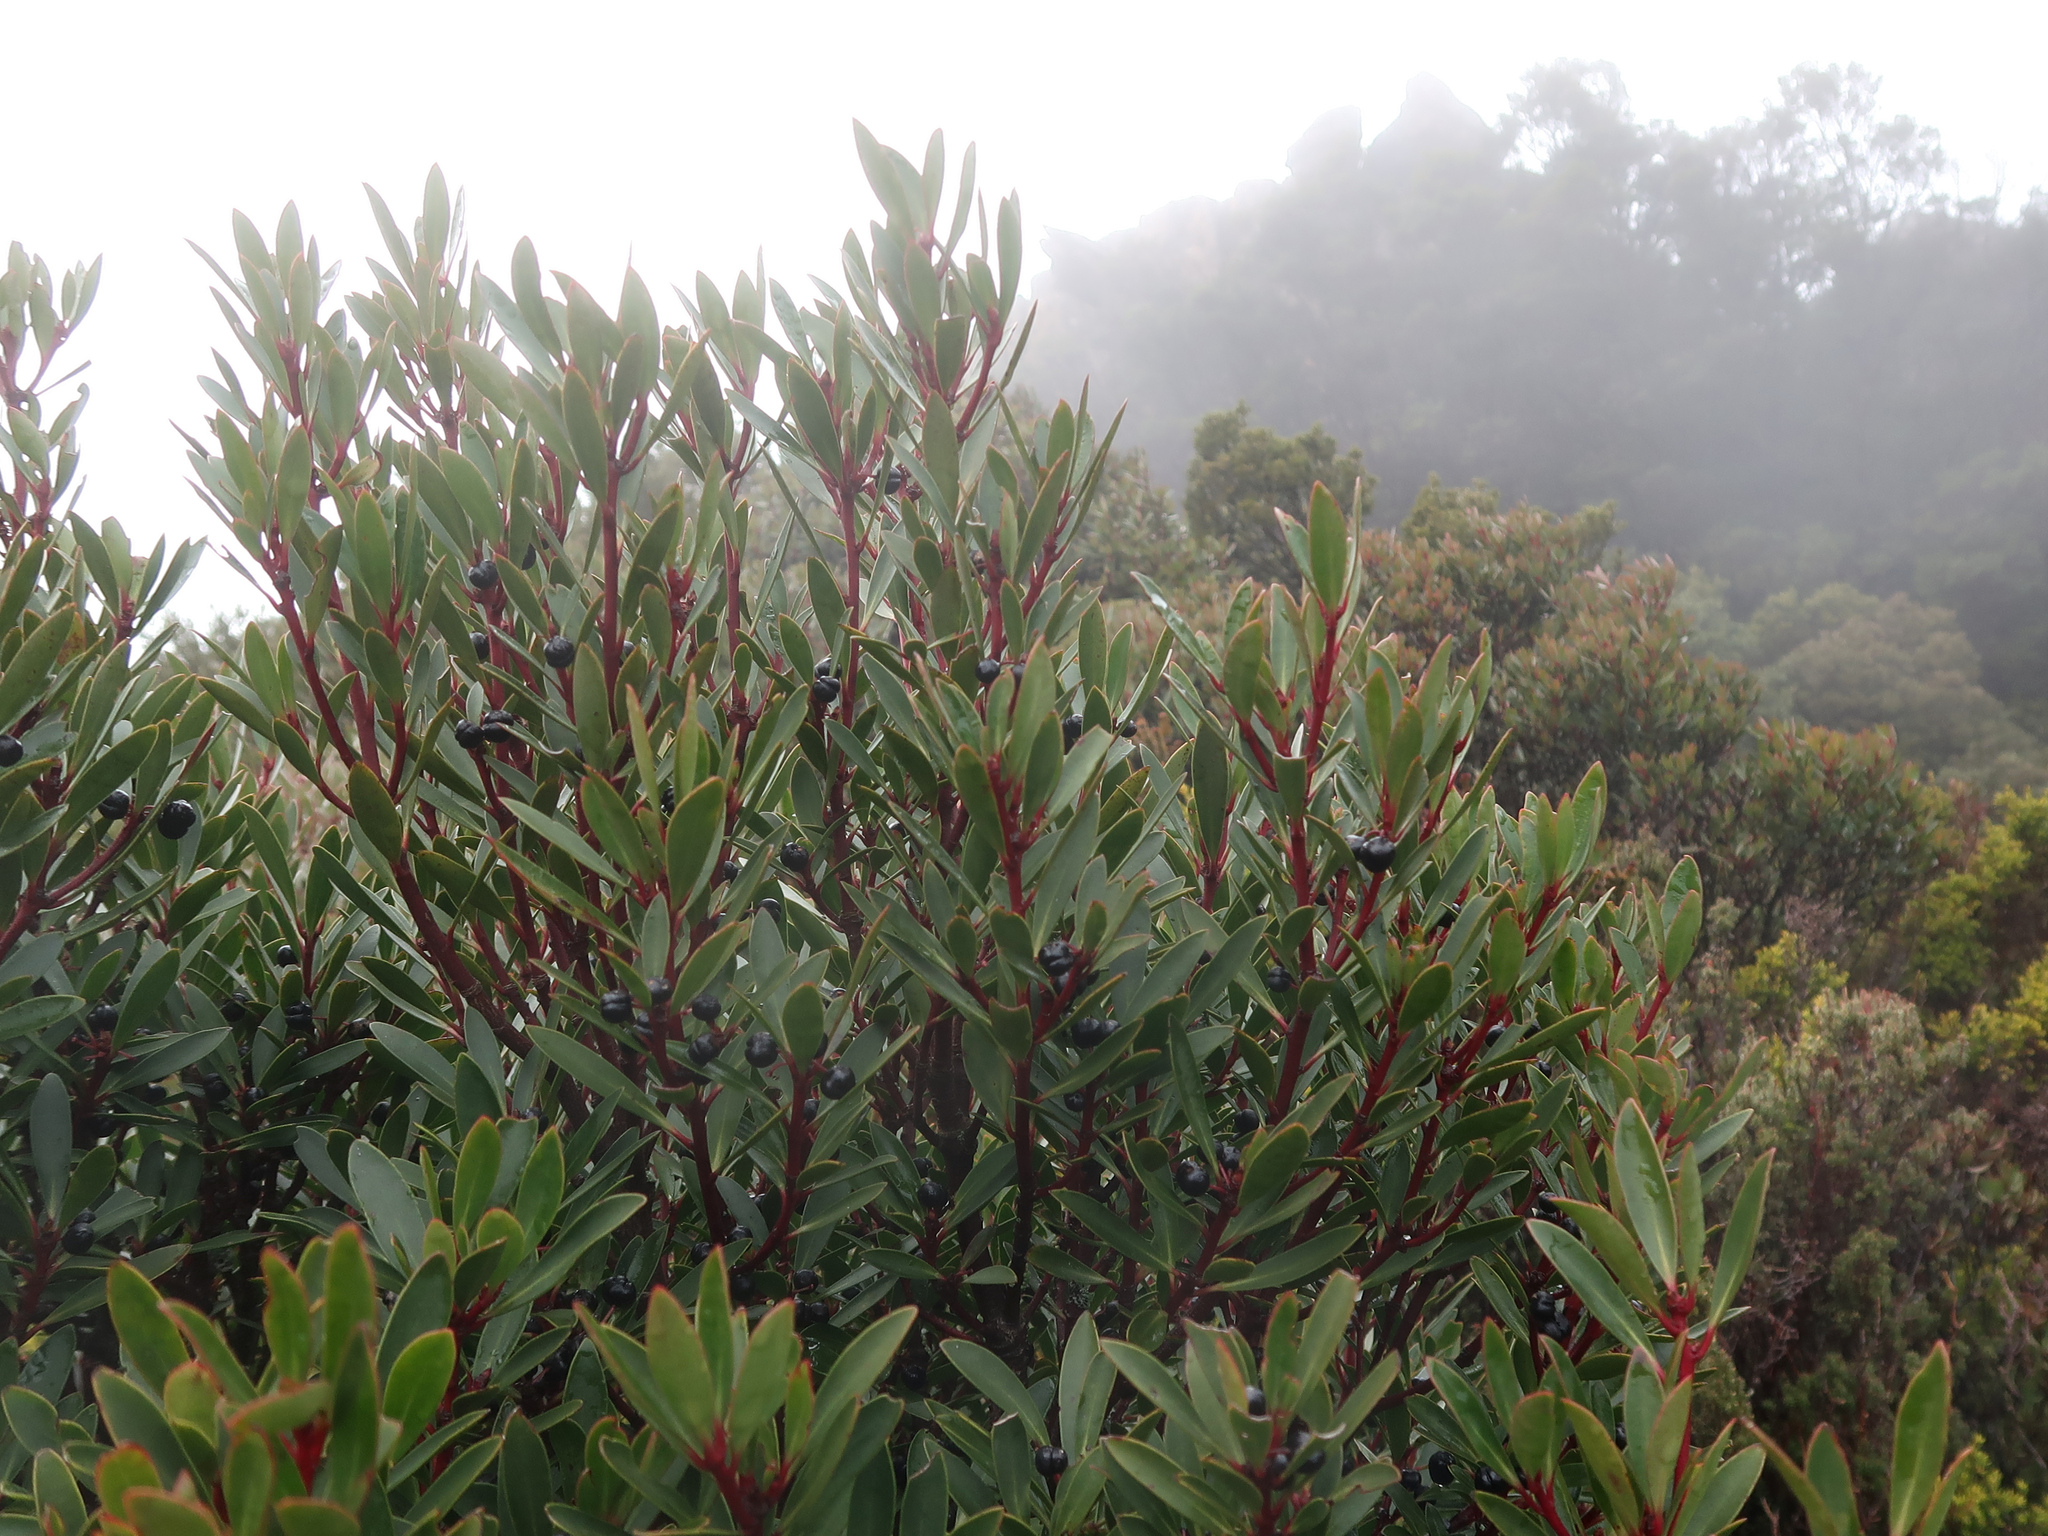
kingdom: Plantae
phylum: Tracheophyta
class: Magnoliopsida
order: Canellales
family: Winteraceae
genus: Drimys
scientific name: Drimys aromatica
